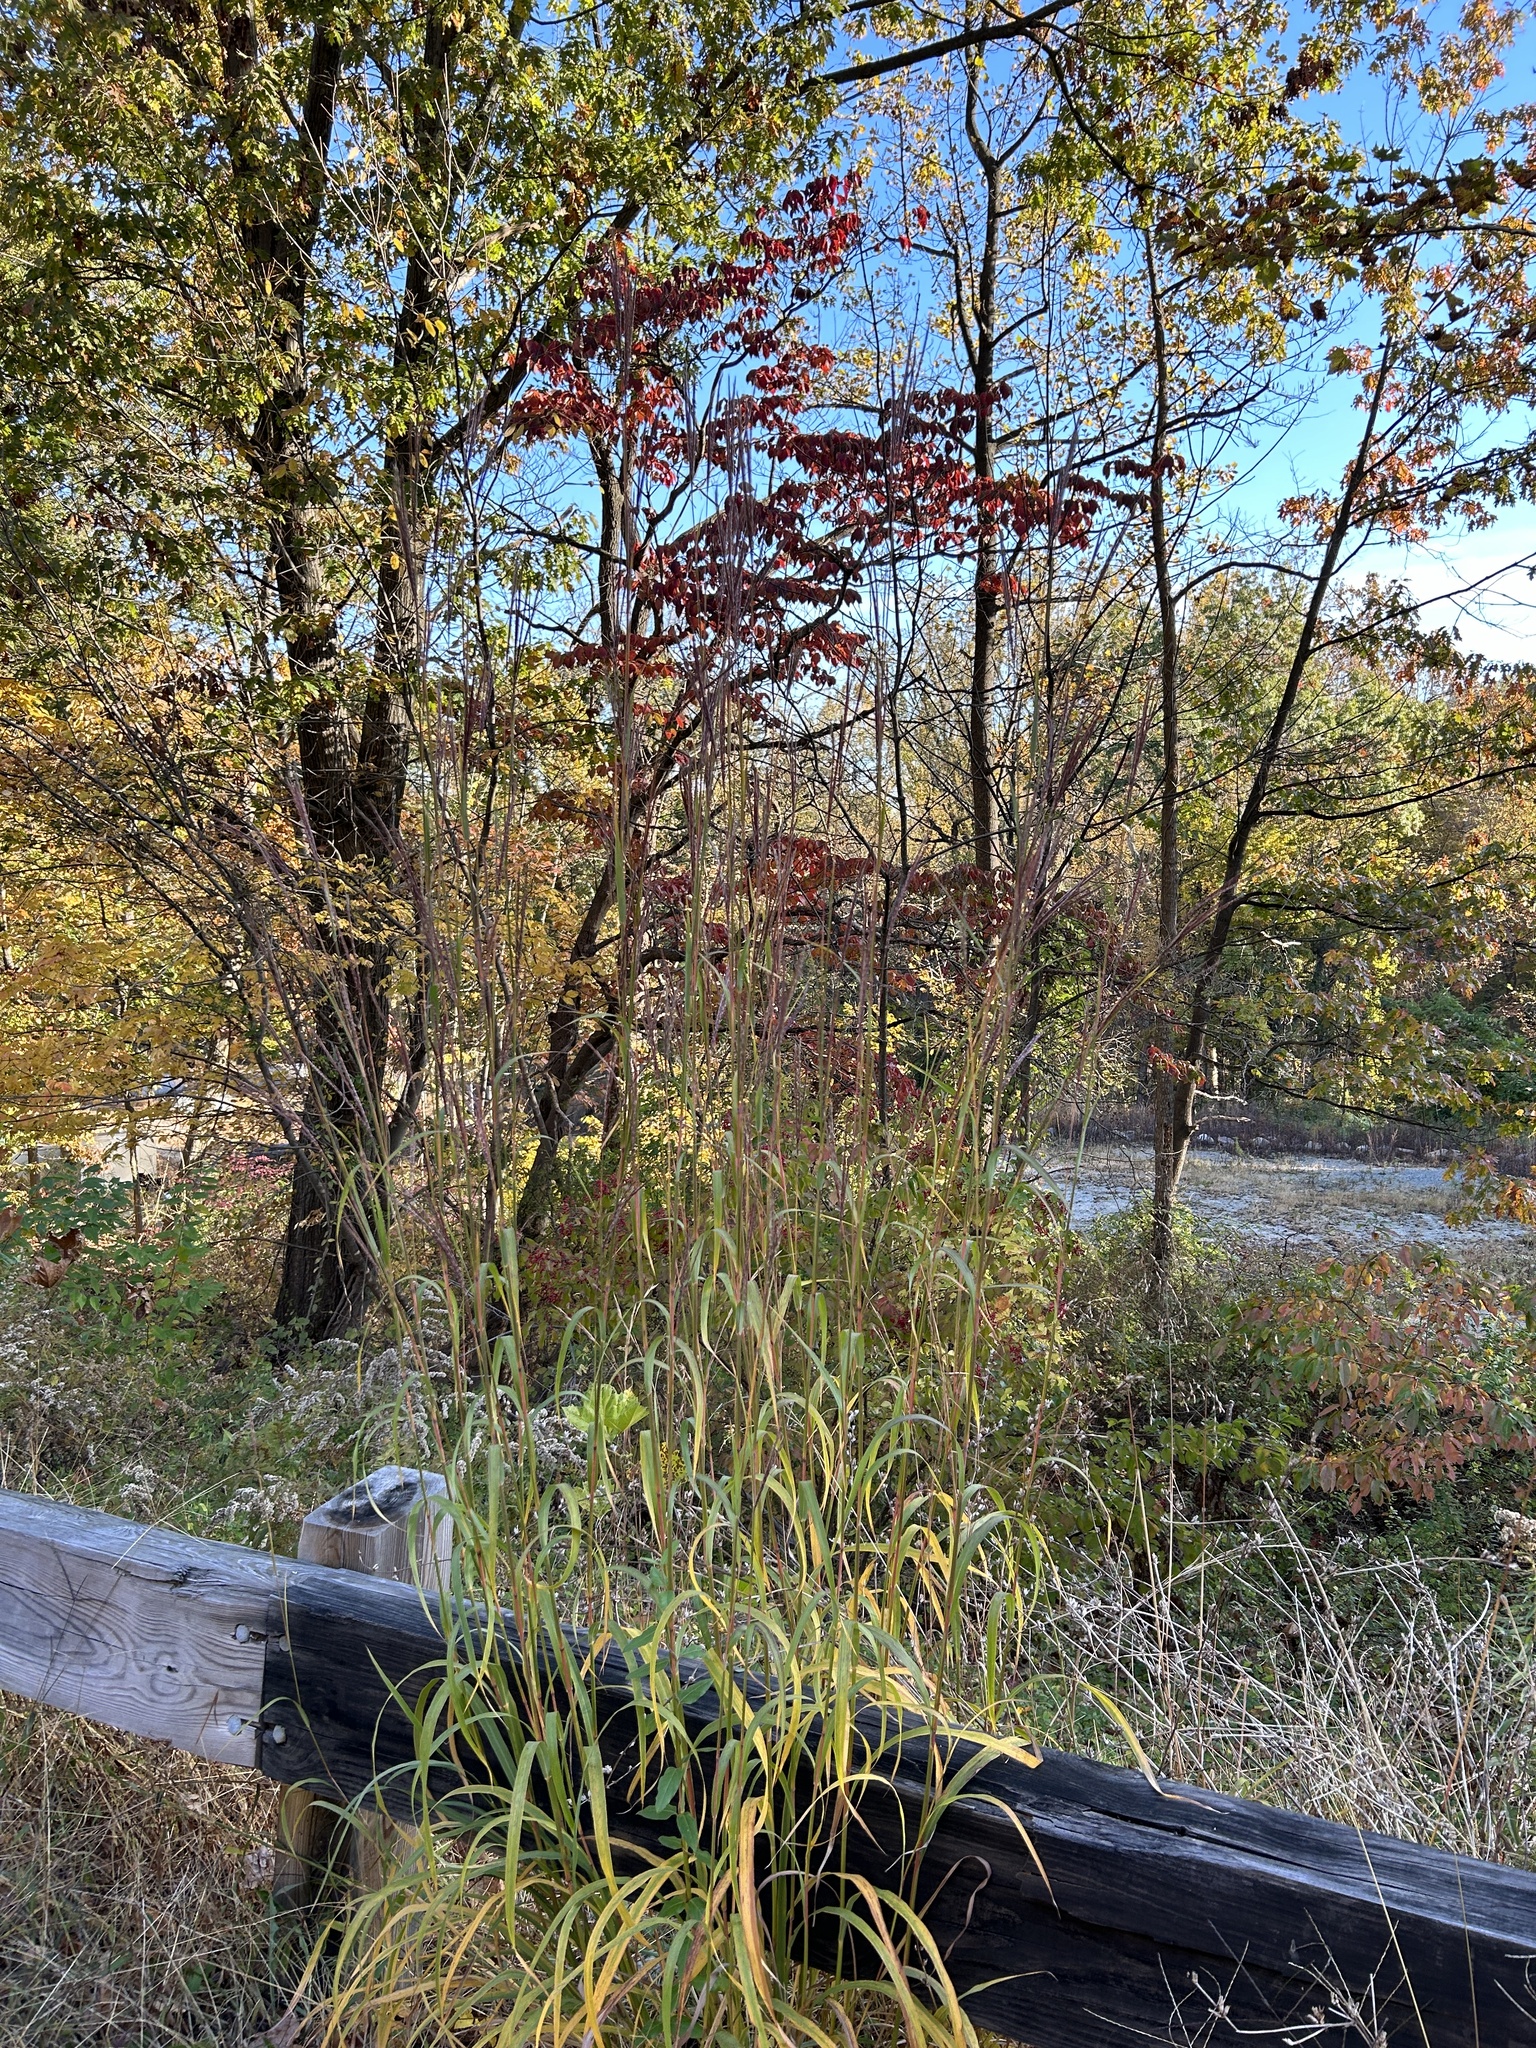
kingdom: Plantae
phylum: Tracheophyta
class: Liliopsida
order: Poales
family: Poaceae
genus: Andropogon
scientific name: Andropogon gerardi
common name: Big bluestem
